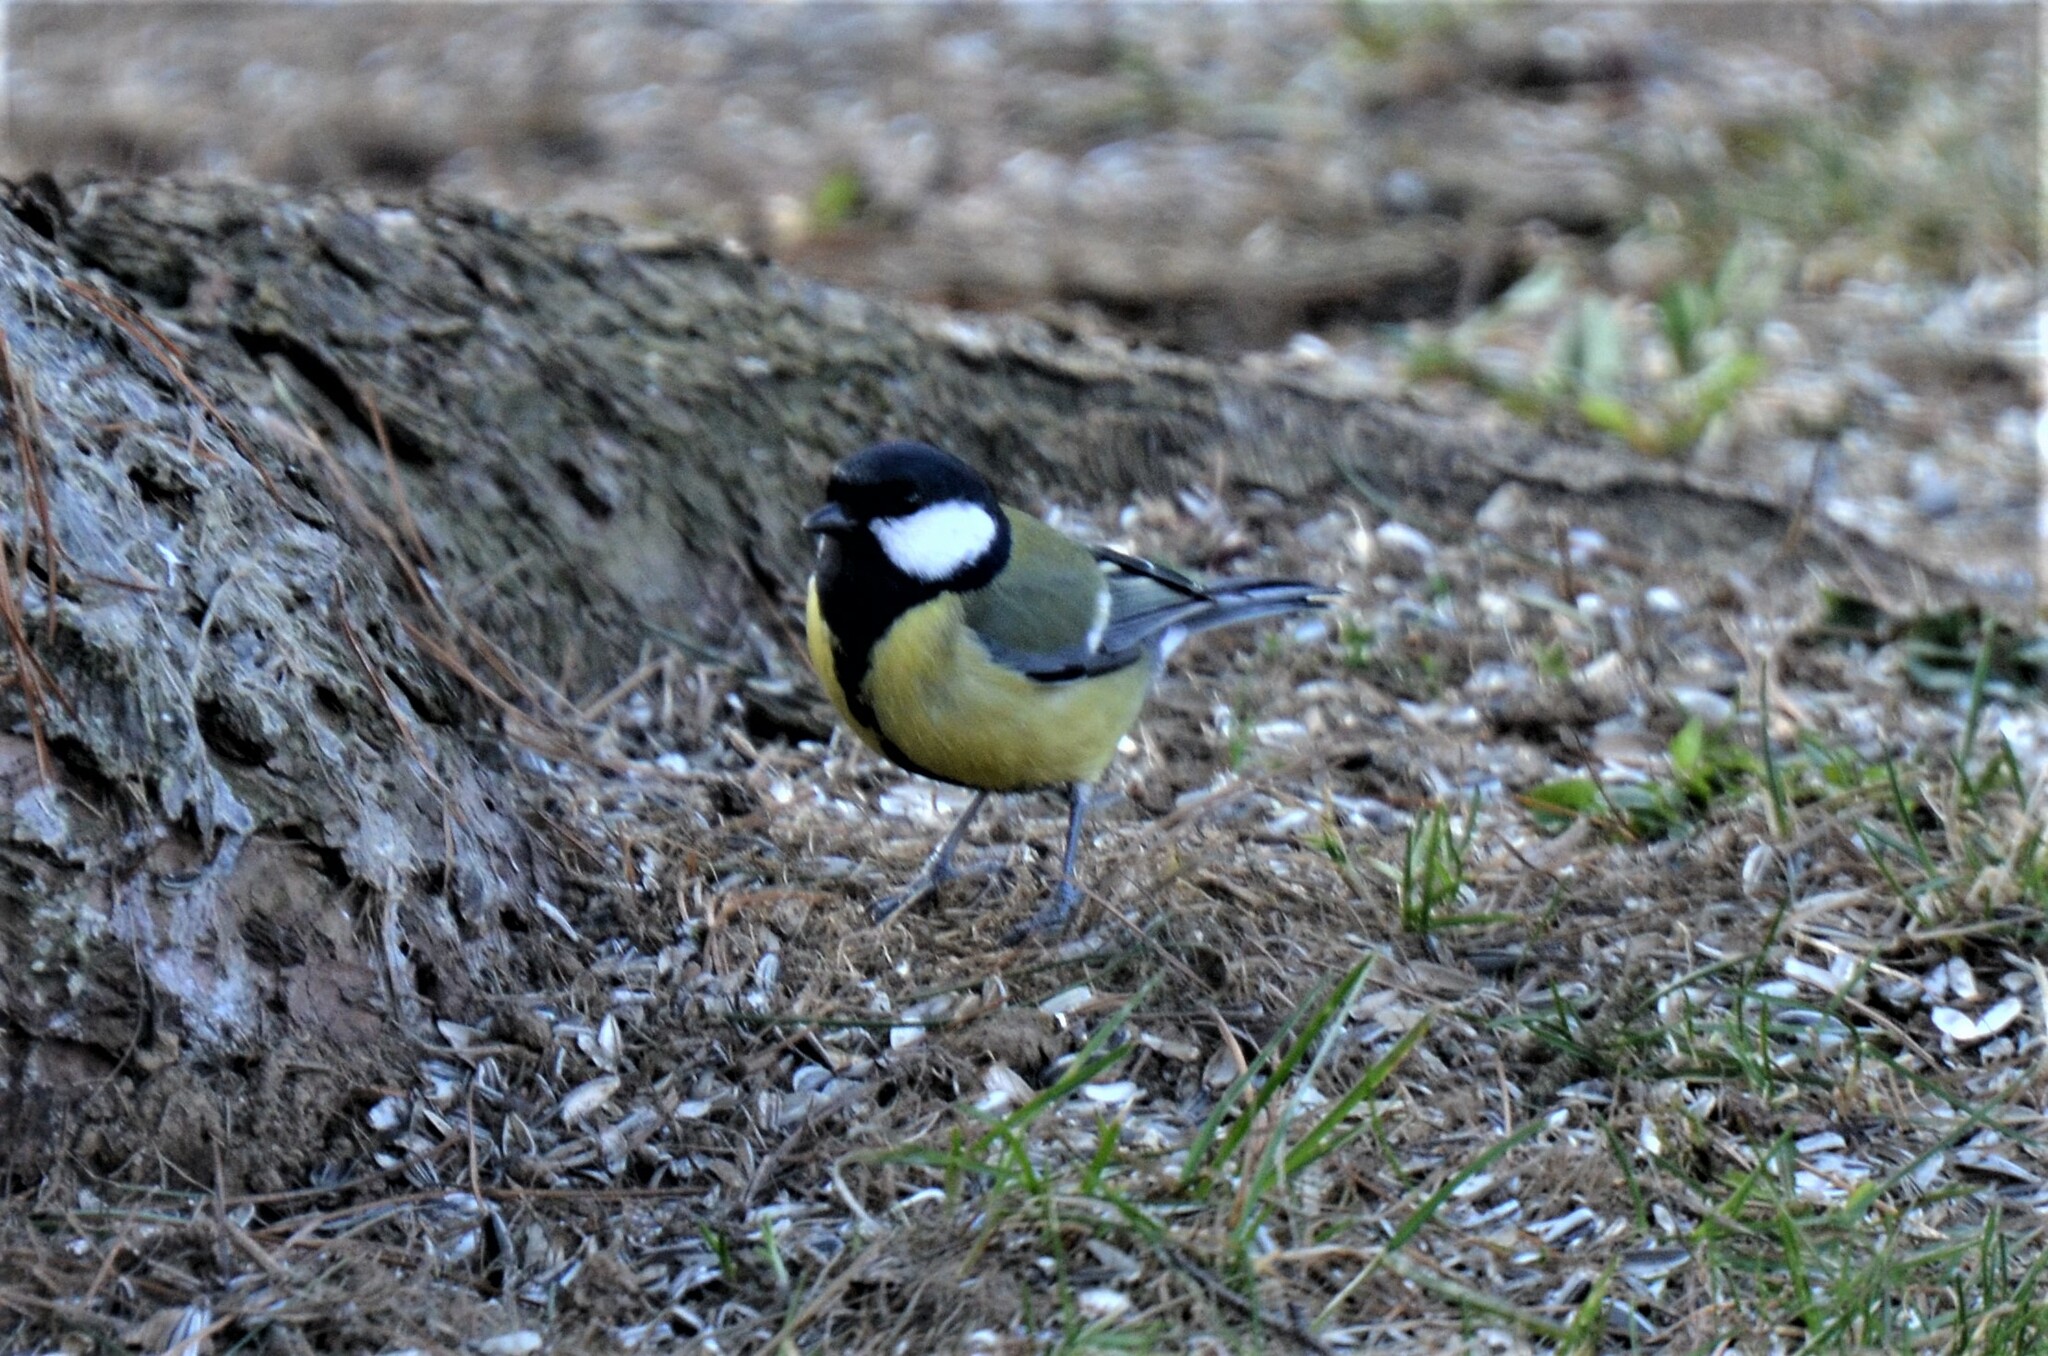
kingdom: Animalia
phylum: Chordata
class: Aves
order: Passeriformes
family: Paridae
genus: Parus
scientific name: Parus major
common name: Great tit
